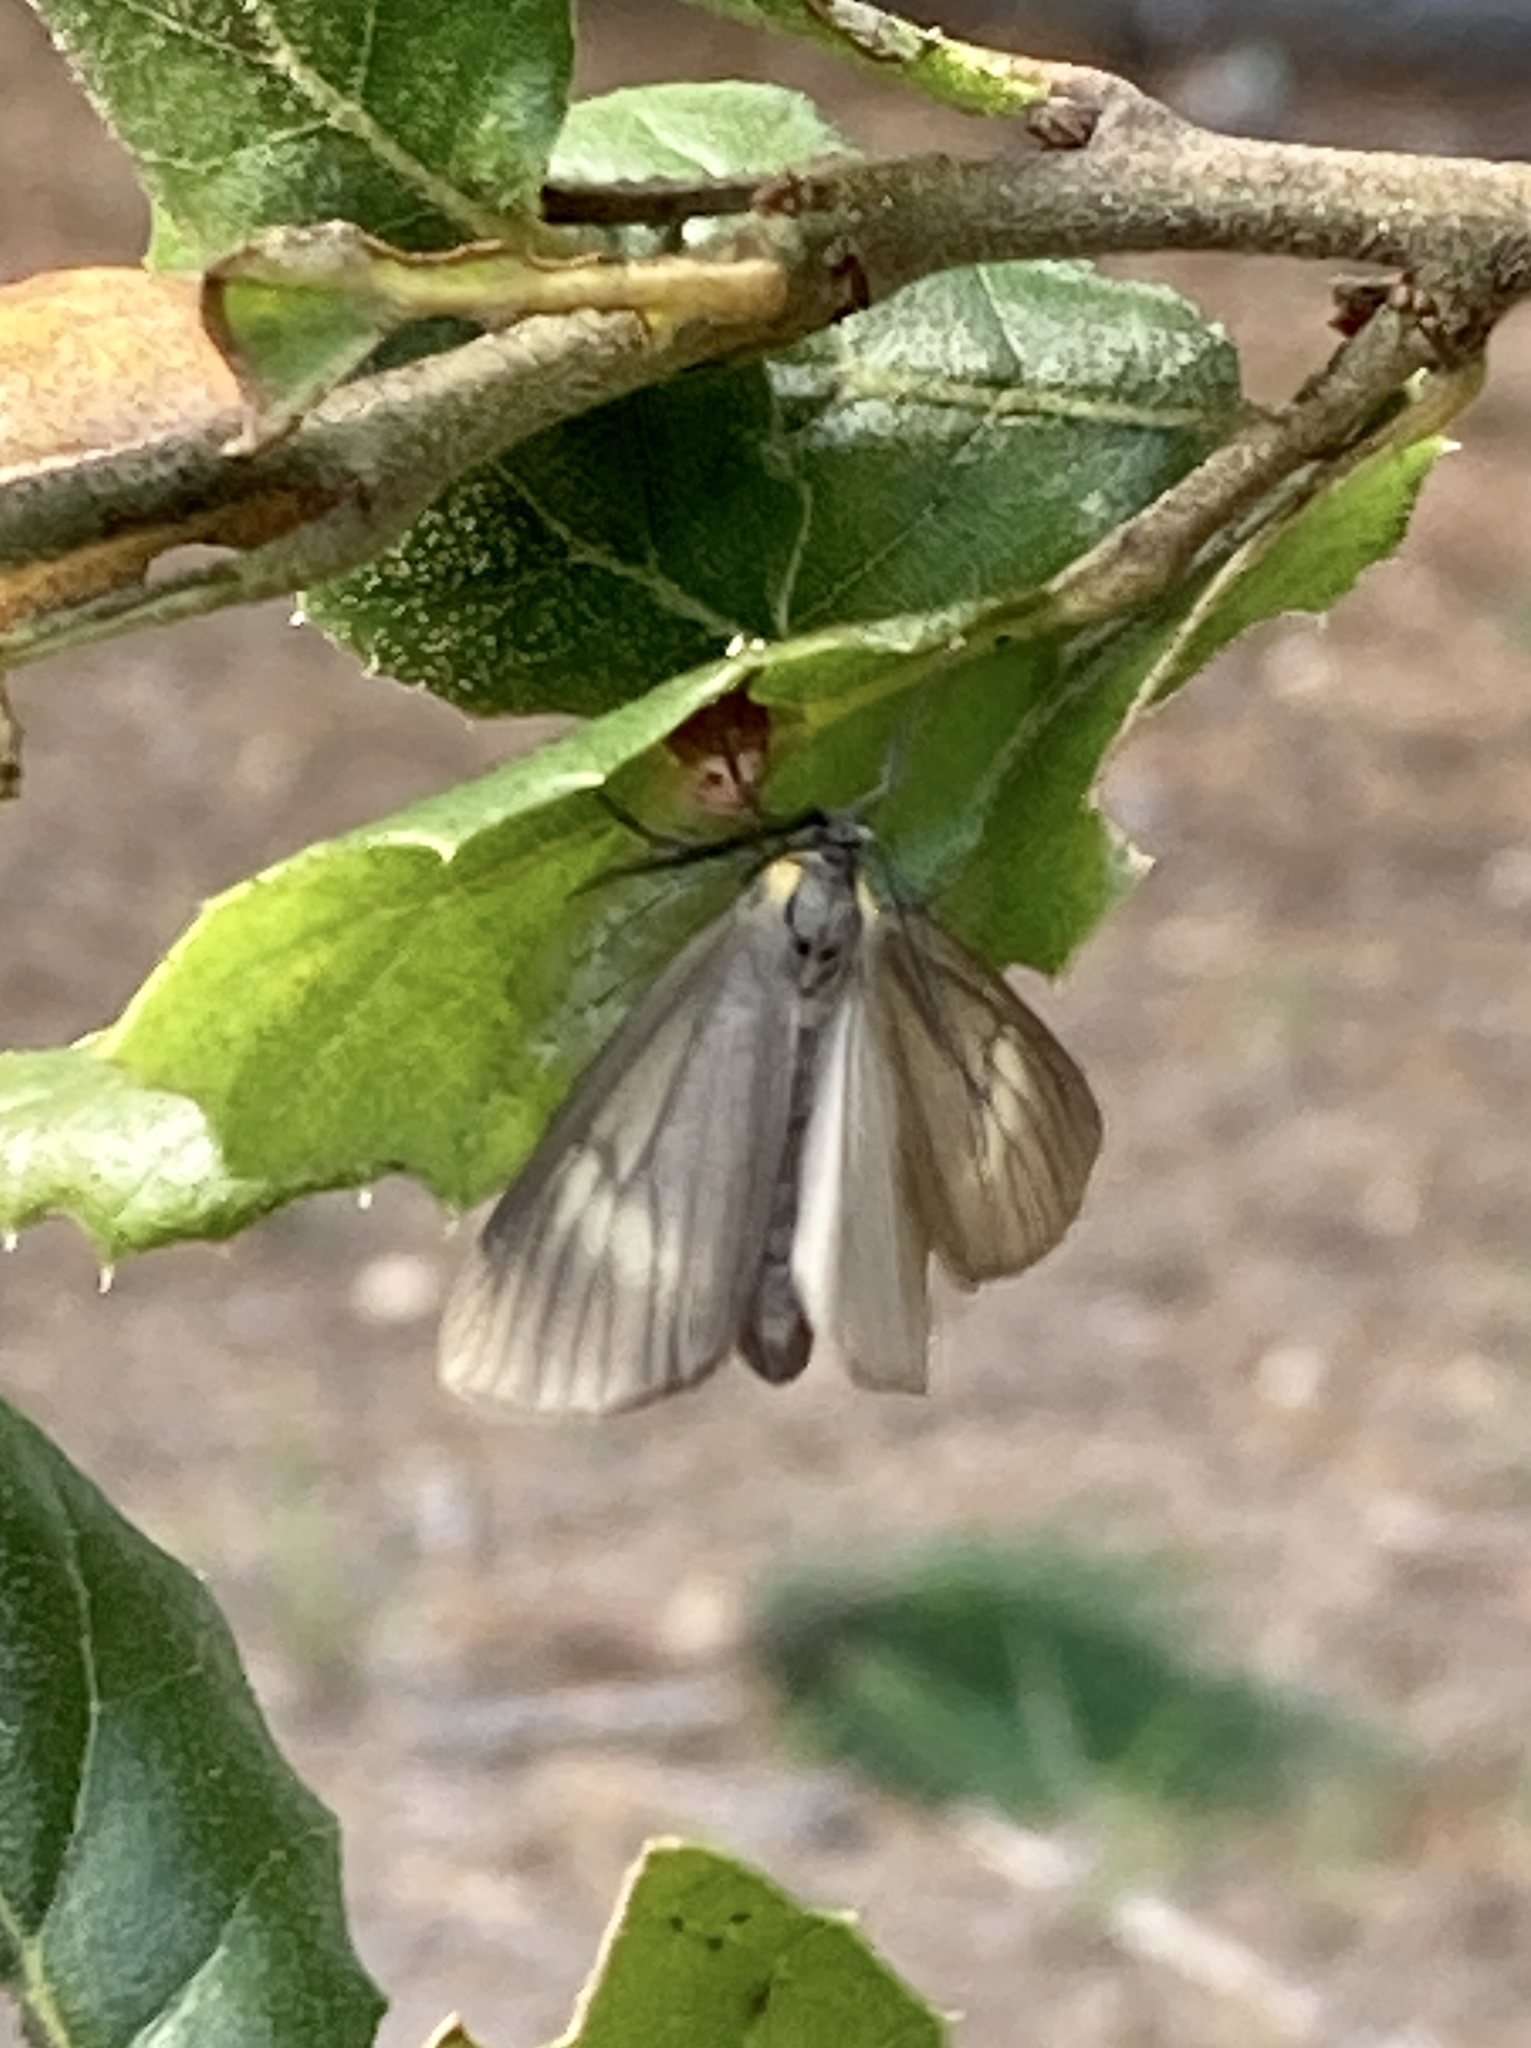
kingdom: Animalia
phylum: Arthropoda
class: Insecta
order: Lepidoptera
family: Notodontidae
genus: Phryganidia
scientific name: Phryganidia californica
